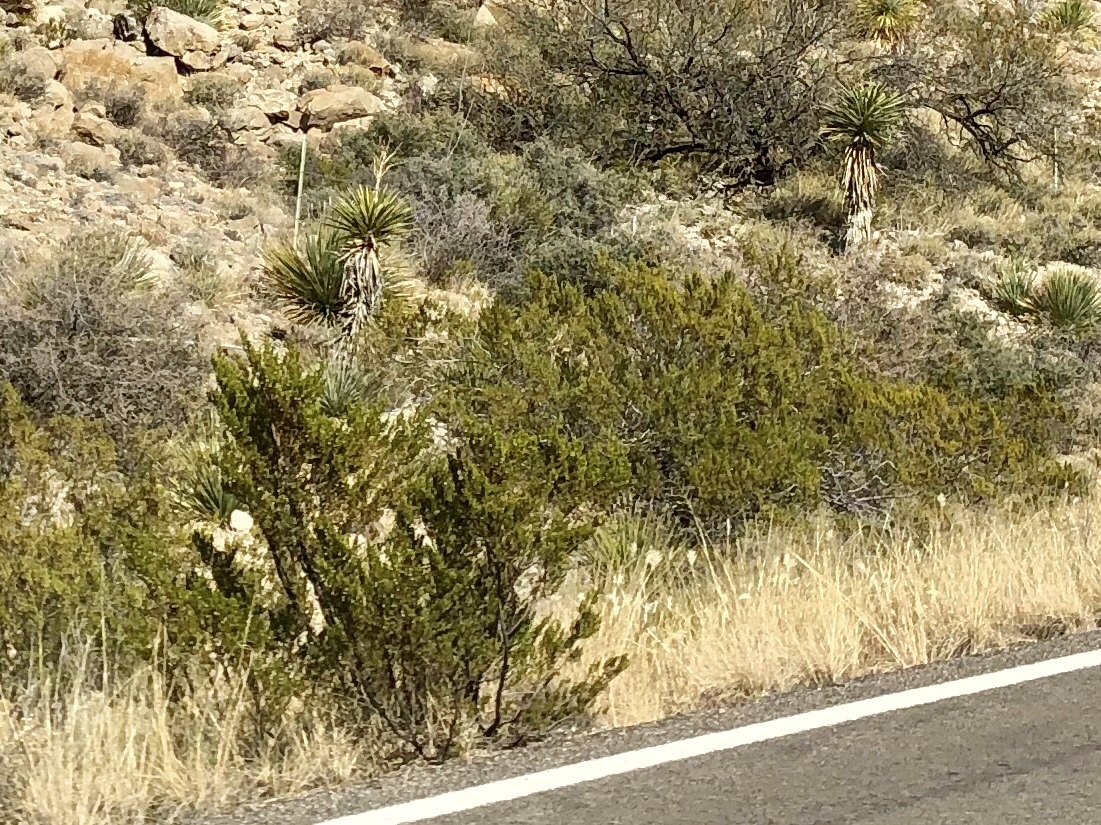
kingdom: Plantae
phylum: Tracheophyta
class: Magnoliopsida
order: Zygophyllales
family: Zygophyllaceae
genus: Larrea
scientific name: Larrea tridentata
